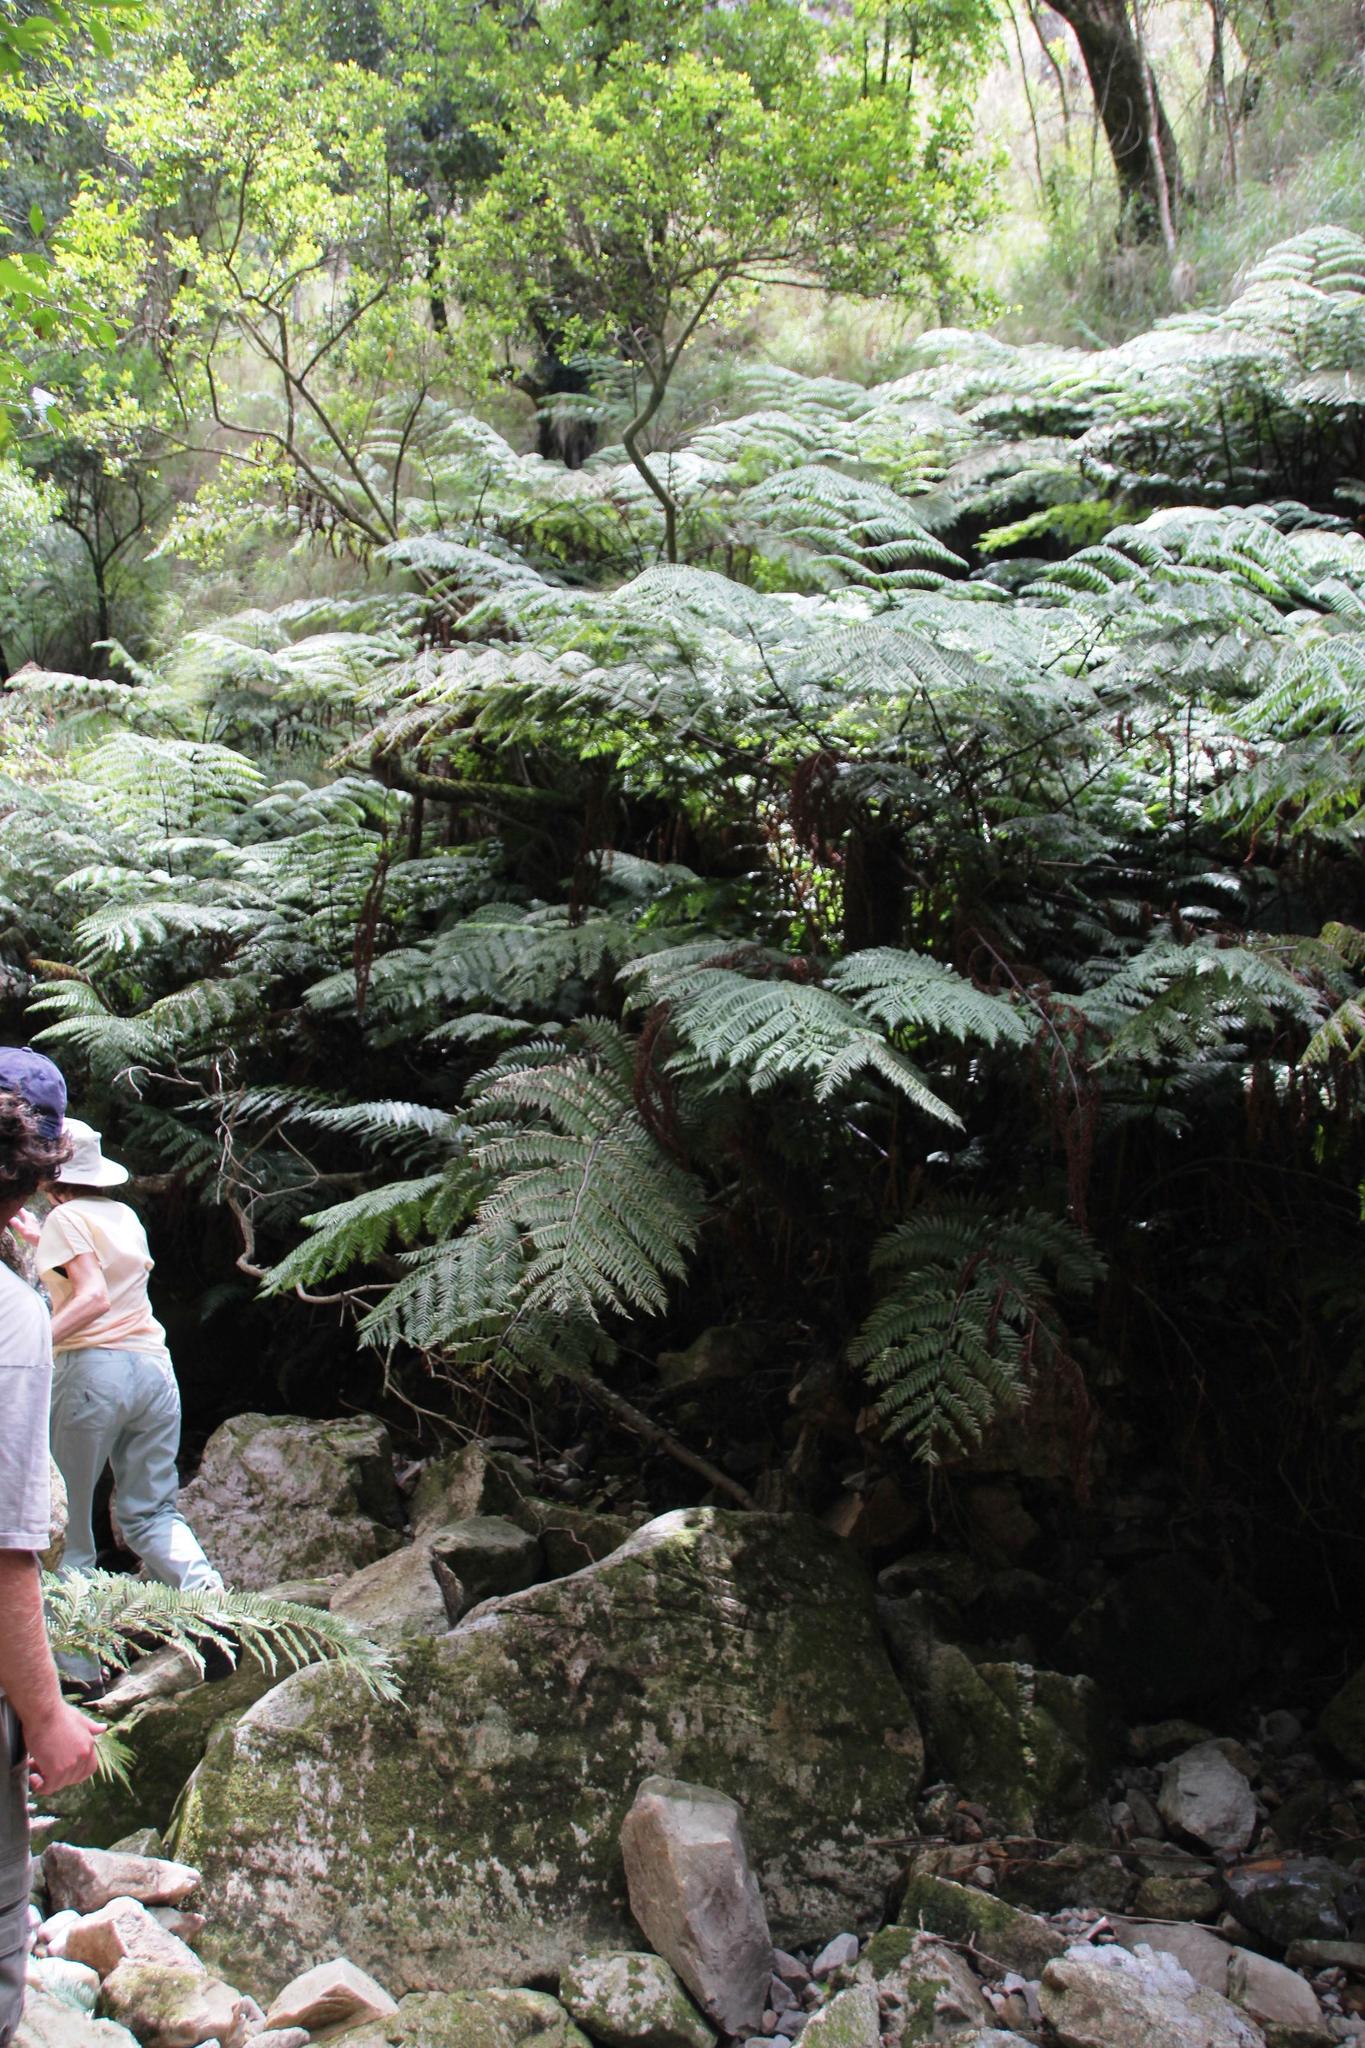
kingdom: Plantae
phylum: Tracheophyta
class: Polypodiopsida
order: Cyatheales
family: Cyatheaceae
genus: Gymnosphaera
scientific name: Gymnosphaera capensis
